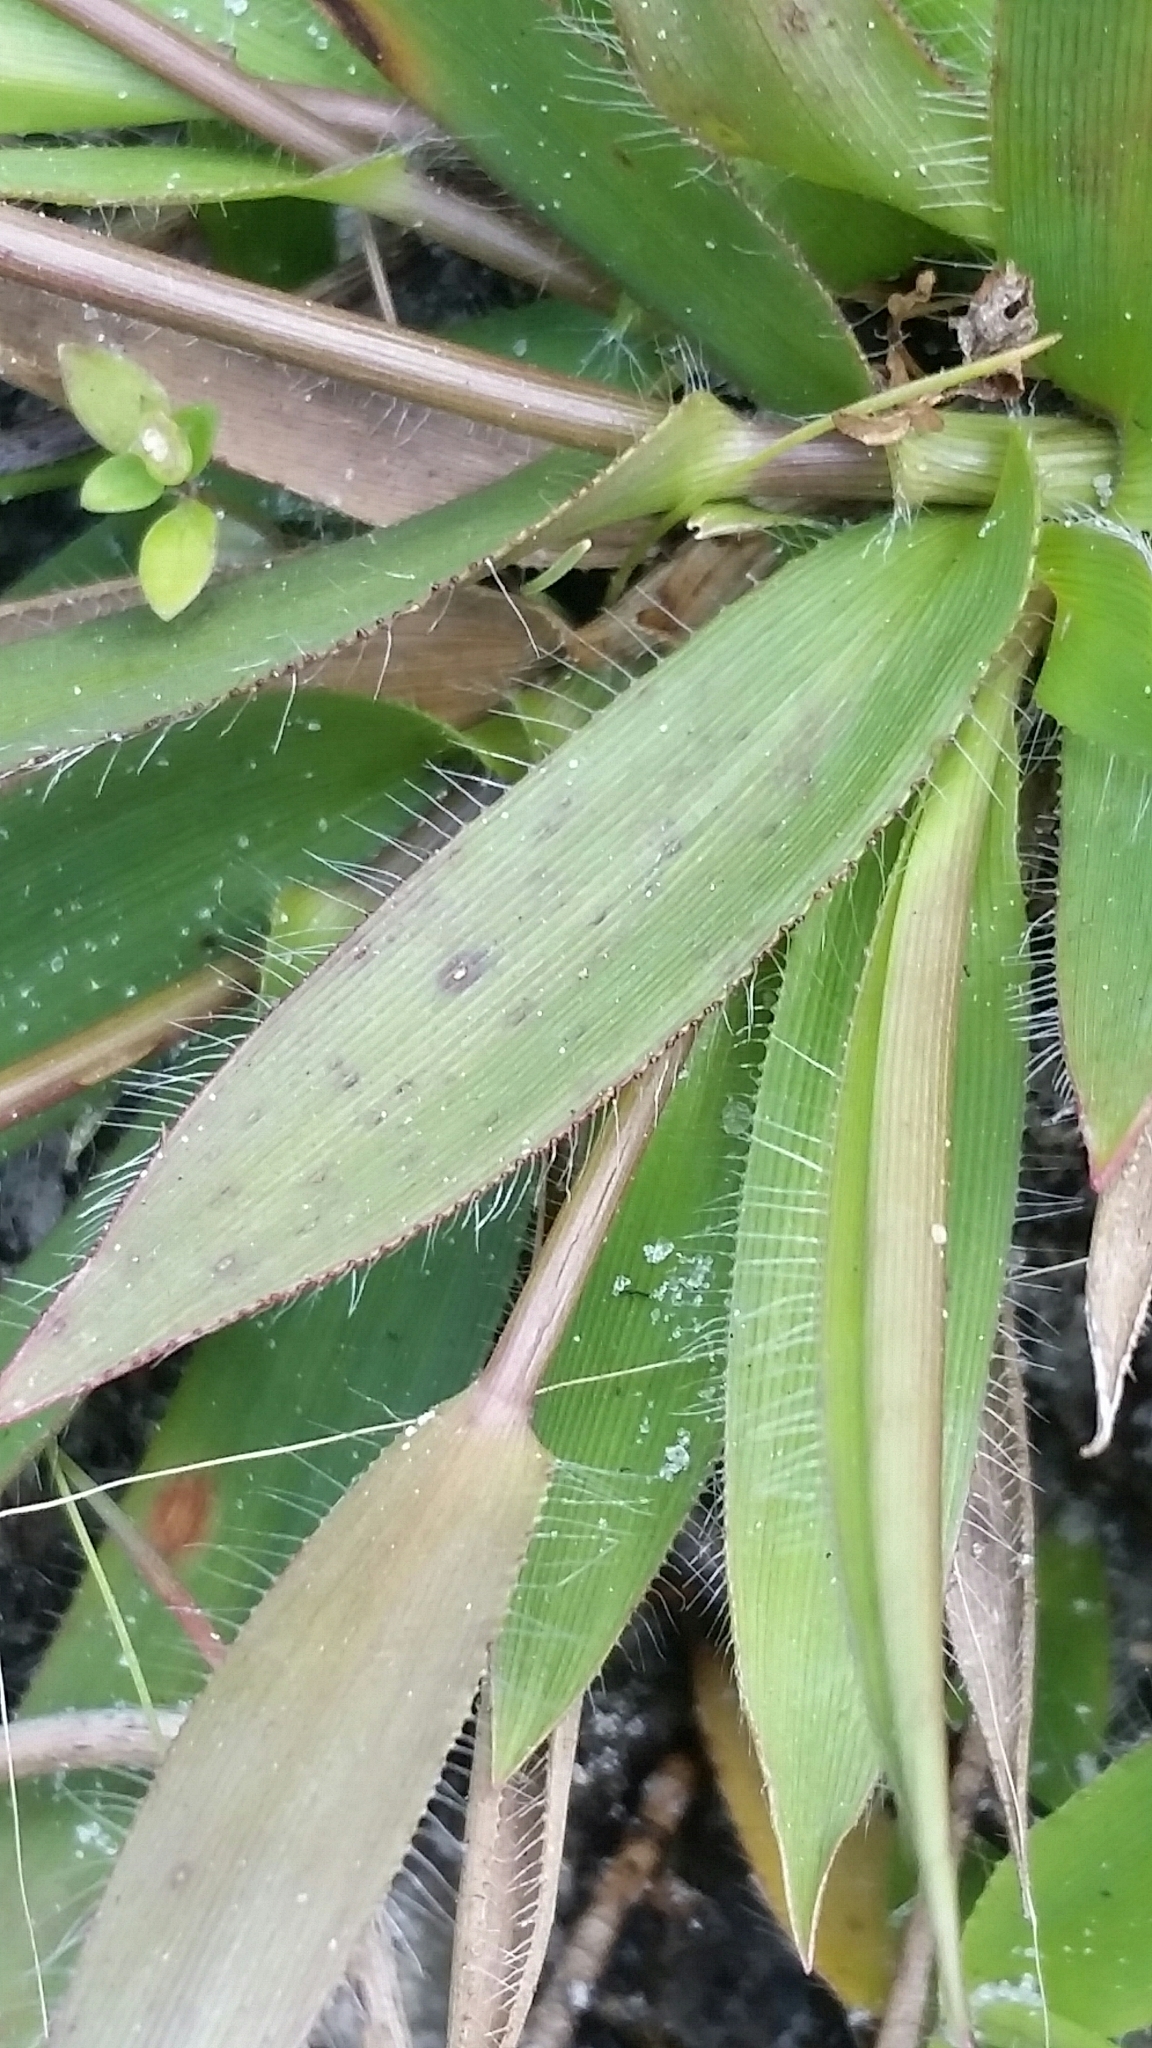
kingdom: Plantae
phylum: Tracheophyta
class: Liliopsida
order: Poales
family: Poaceae
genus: Dichanthelium
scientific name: Dichanthelium strigosum
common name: Cushion-tuft panic grass
